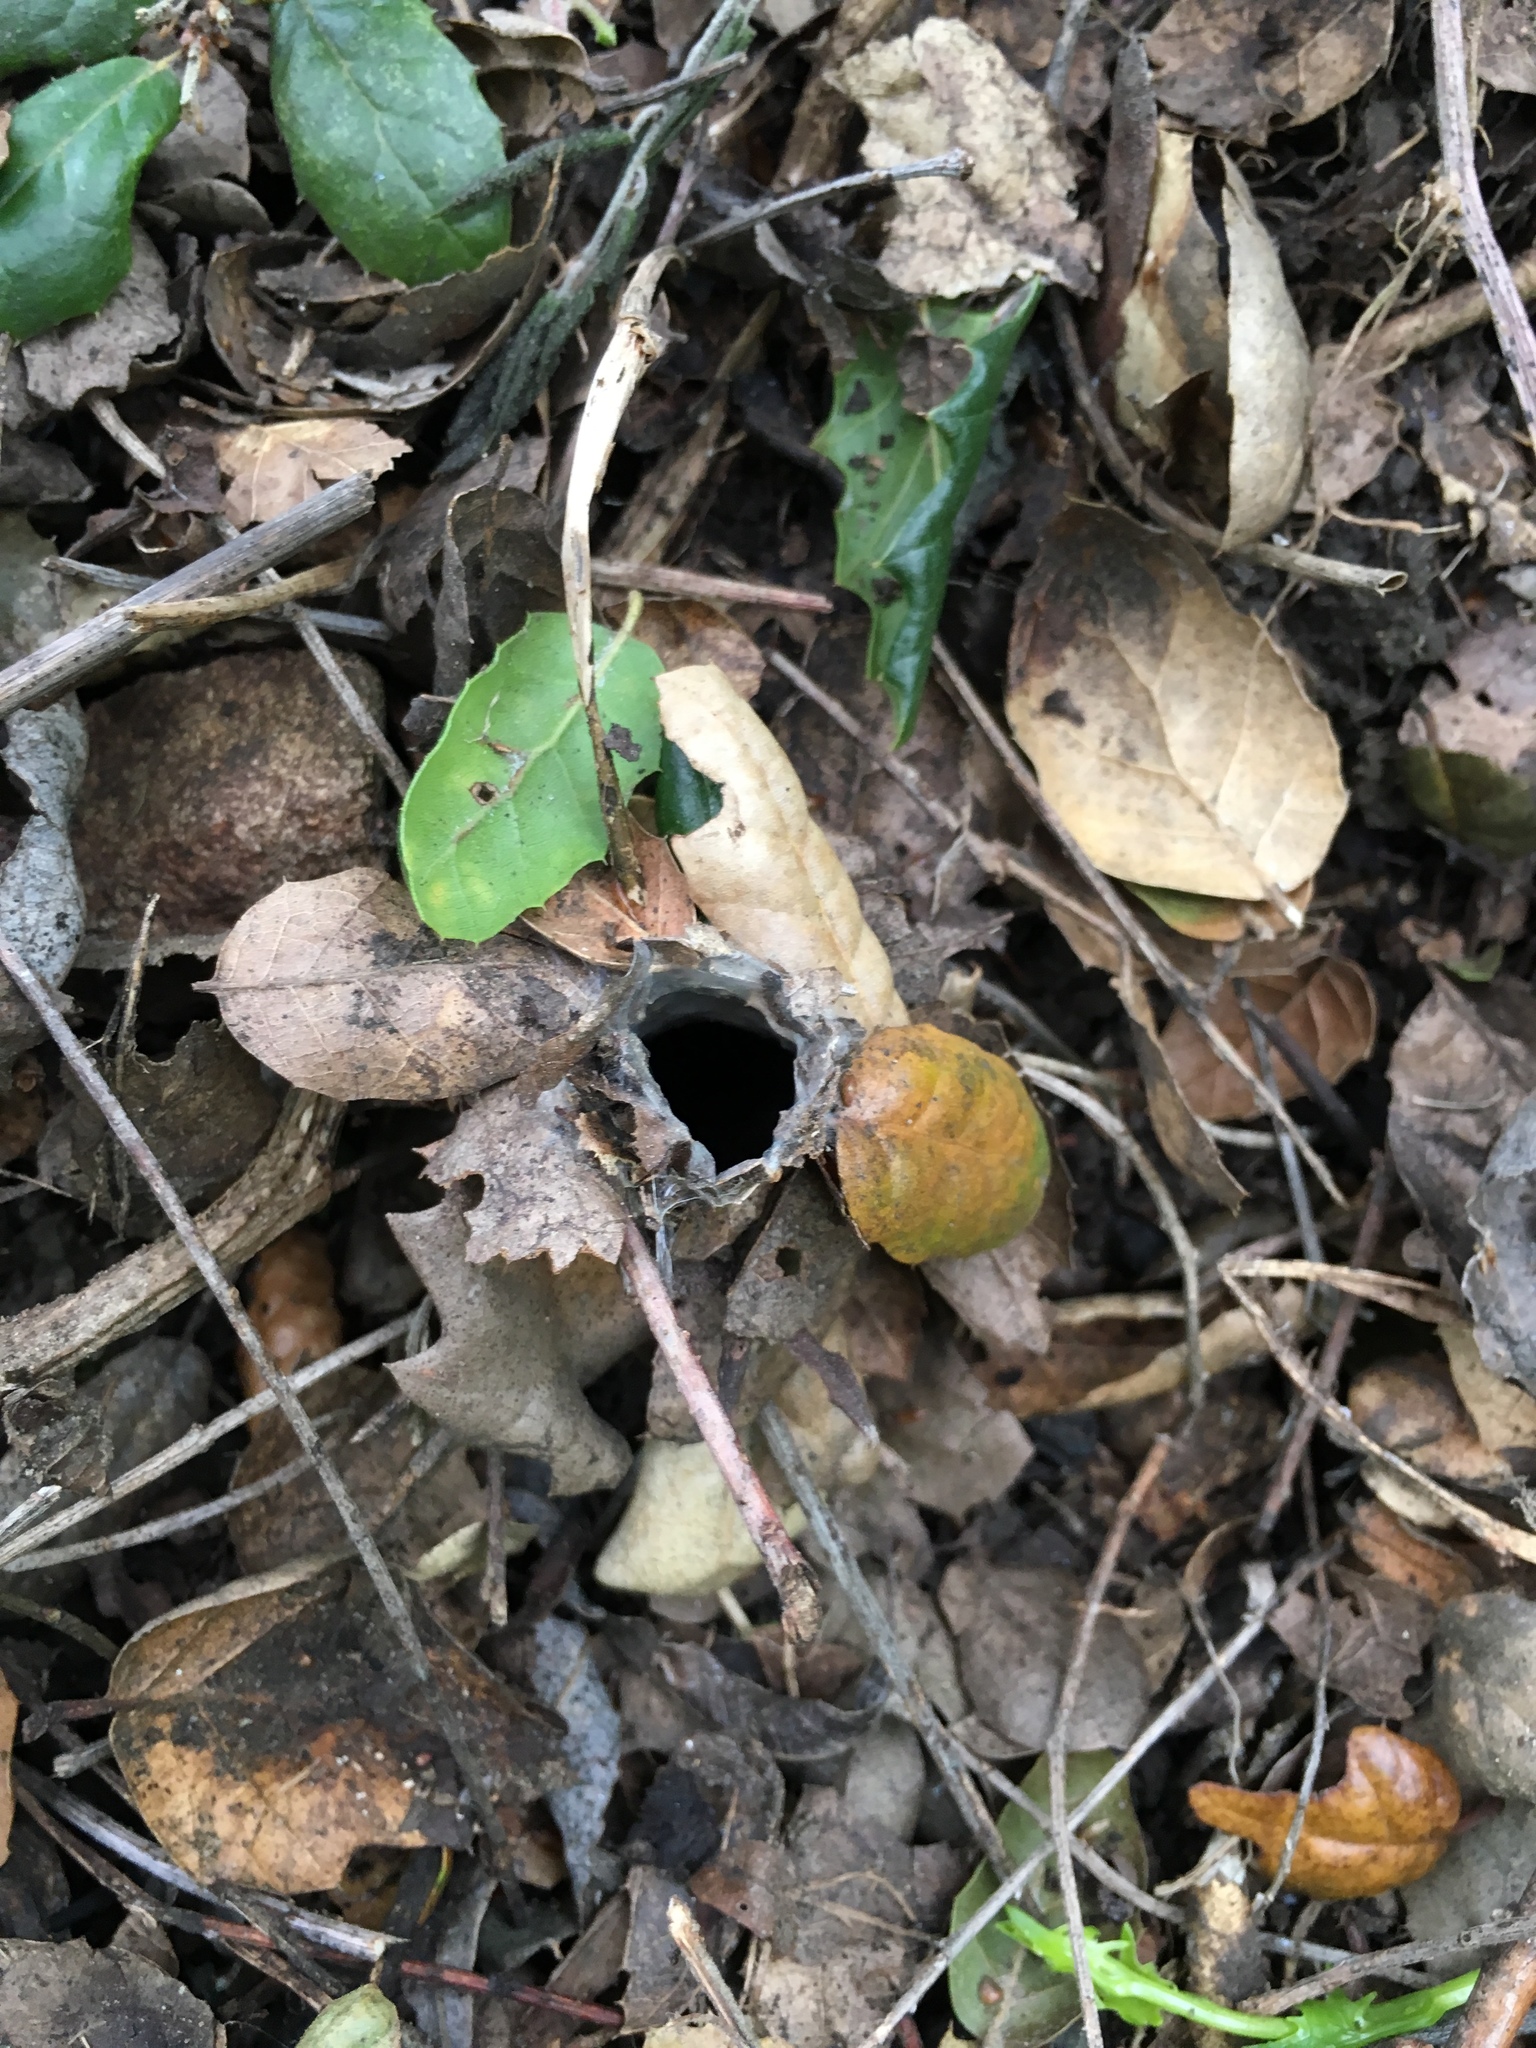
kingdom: Animalia
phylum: Arthropoda
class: Arachnida
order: Araneae
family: Antrodiaetidae
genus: Atypoides
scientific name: Atypoides riversi
